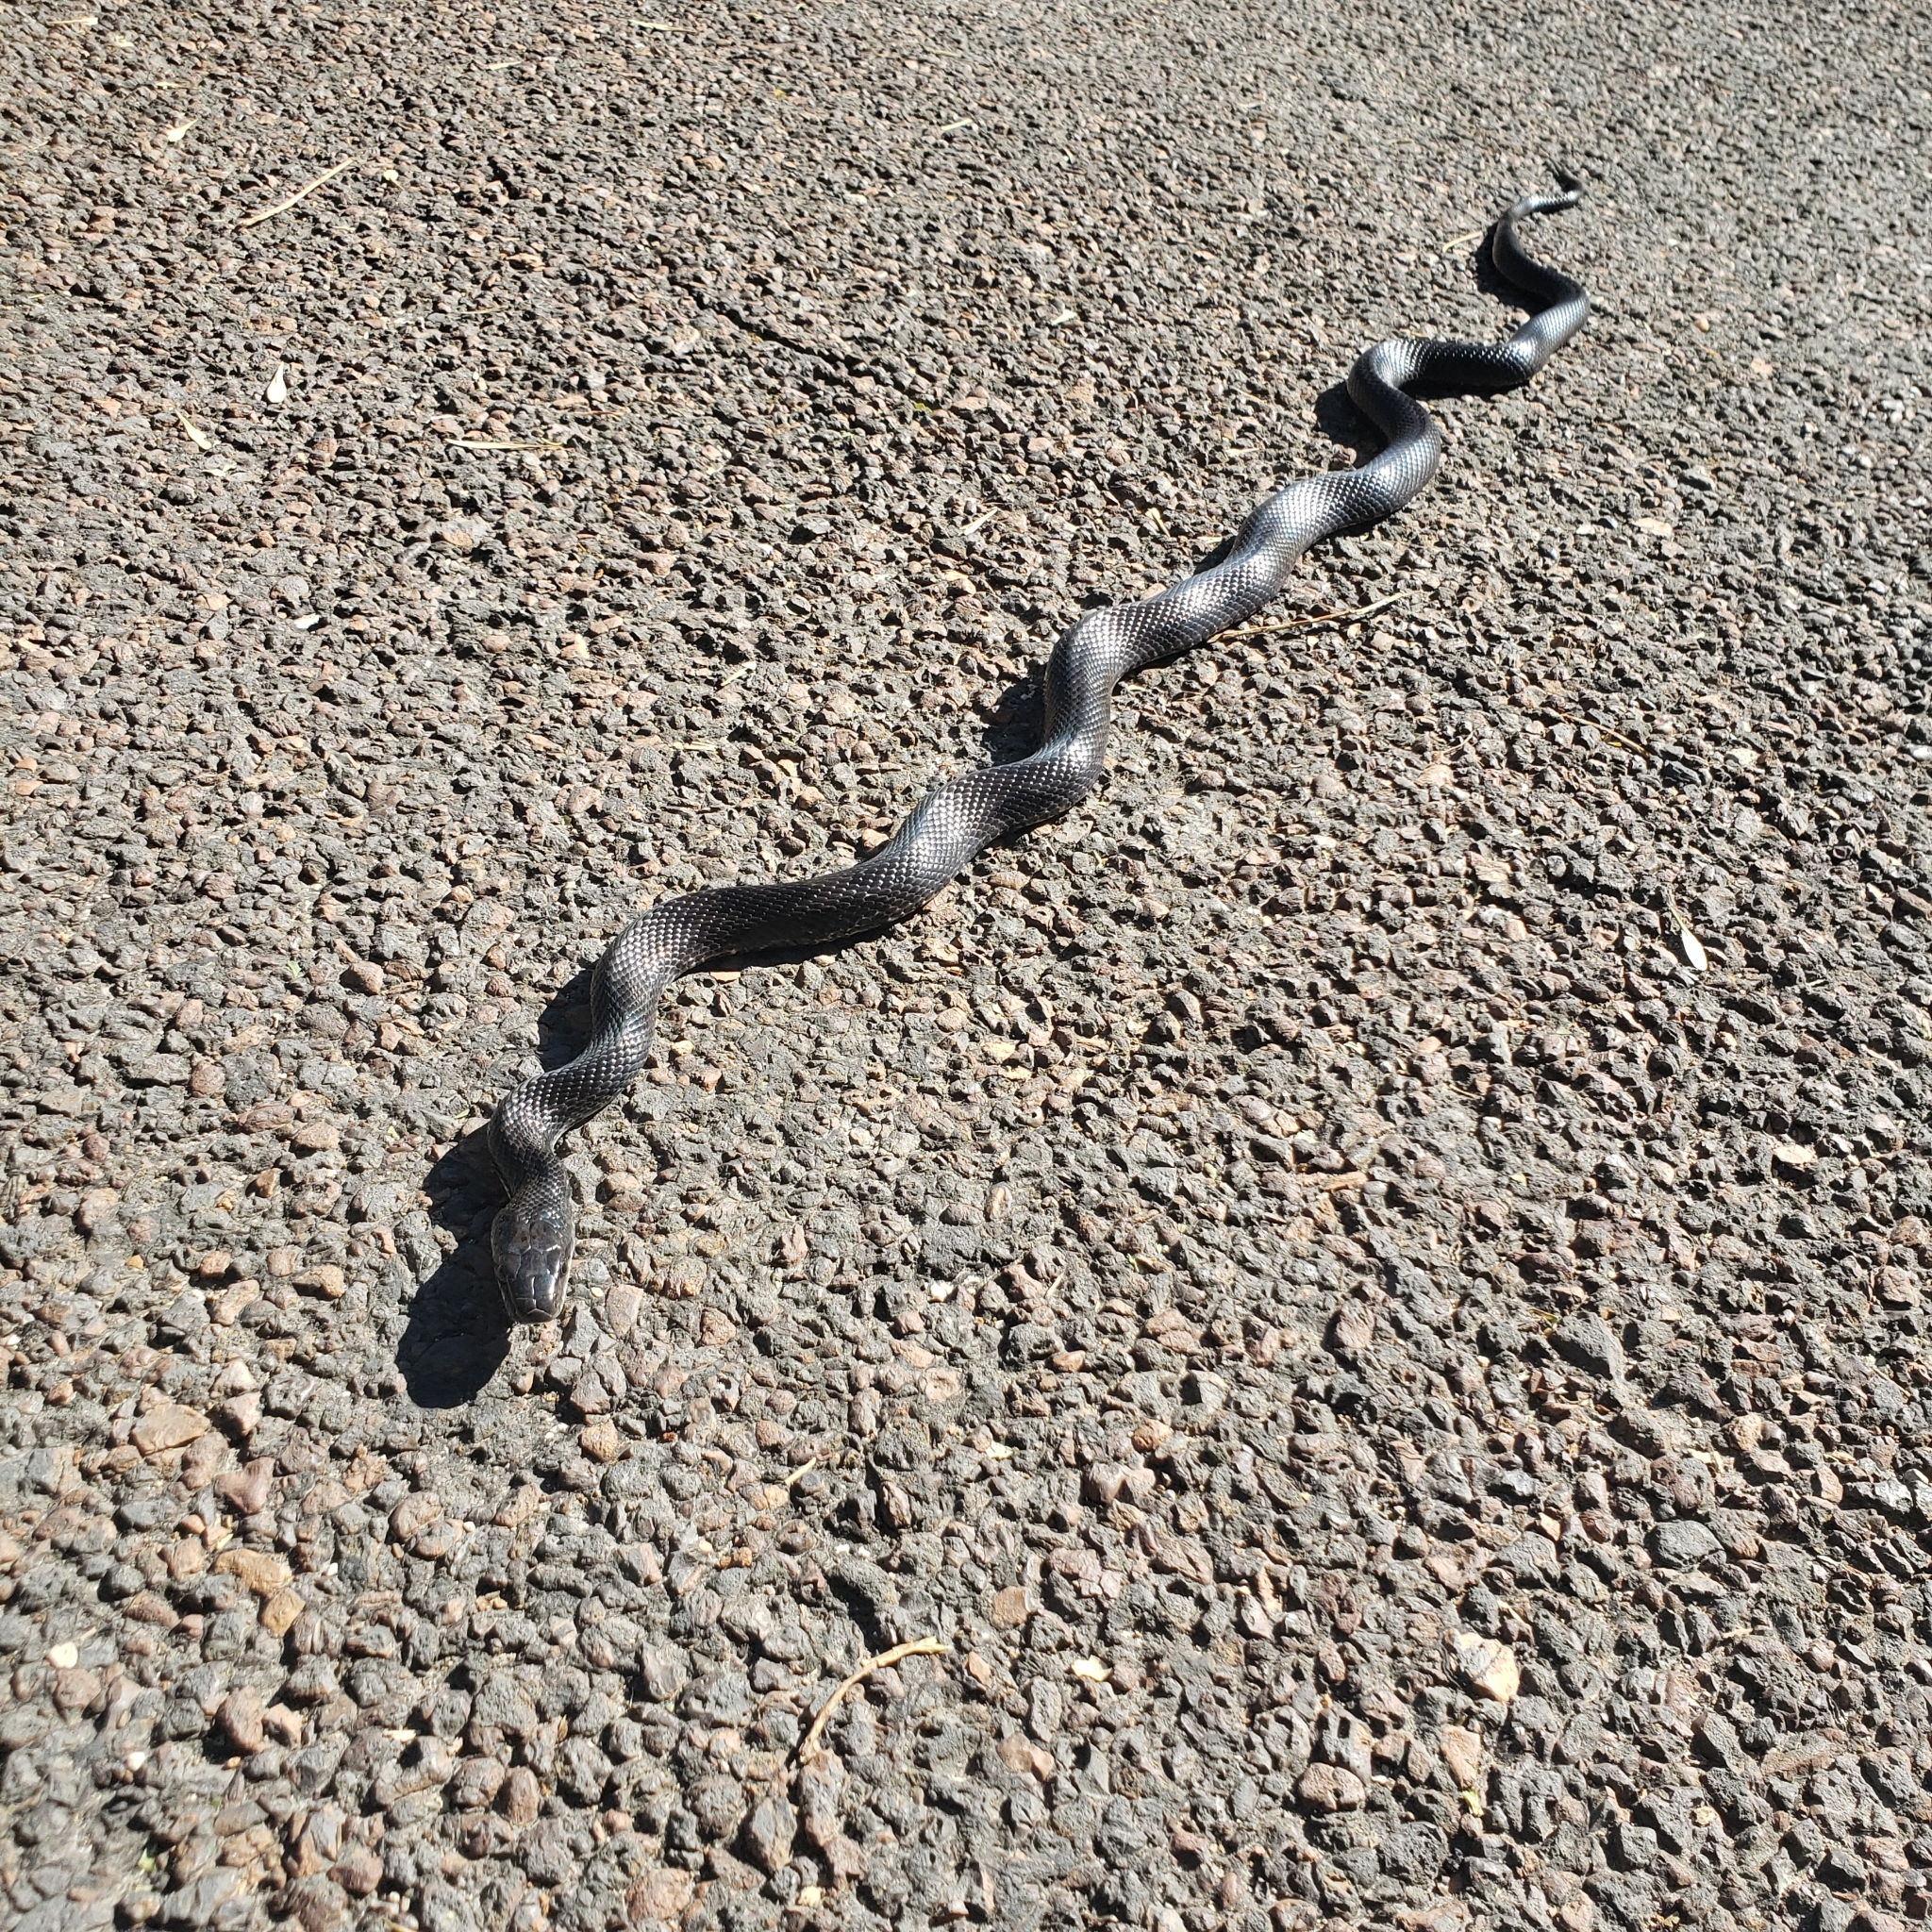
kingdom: Animalia
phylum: Chordata
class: Squamata
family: Colubridae
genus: Pantherophis
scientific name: Pantherophis obsoletus
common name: Black rat snake
